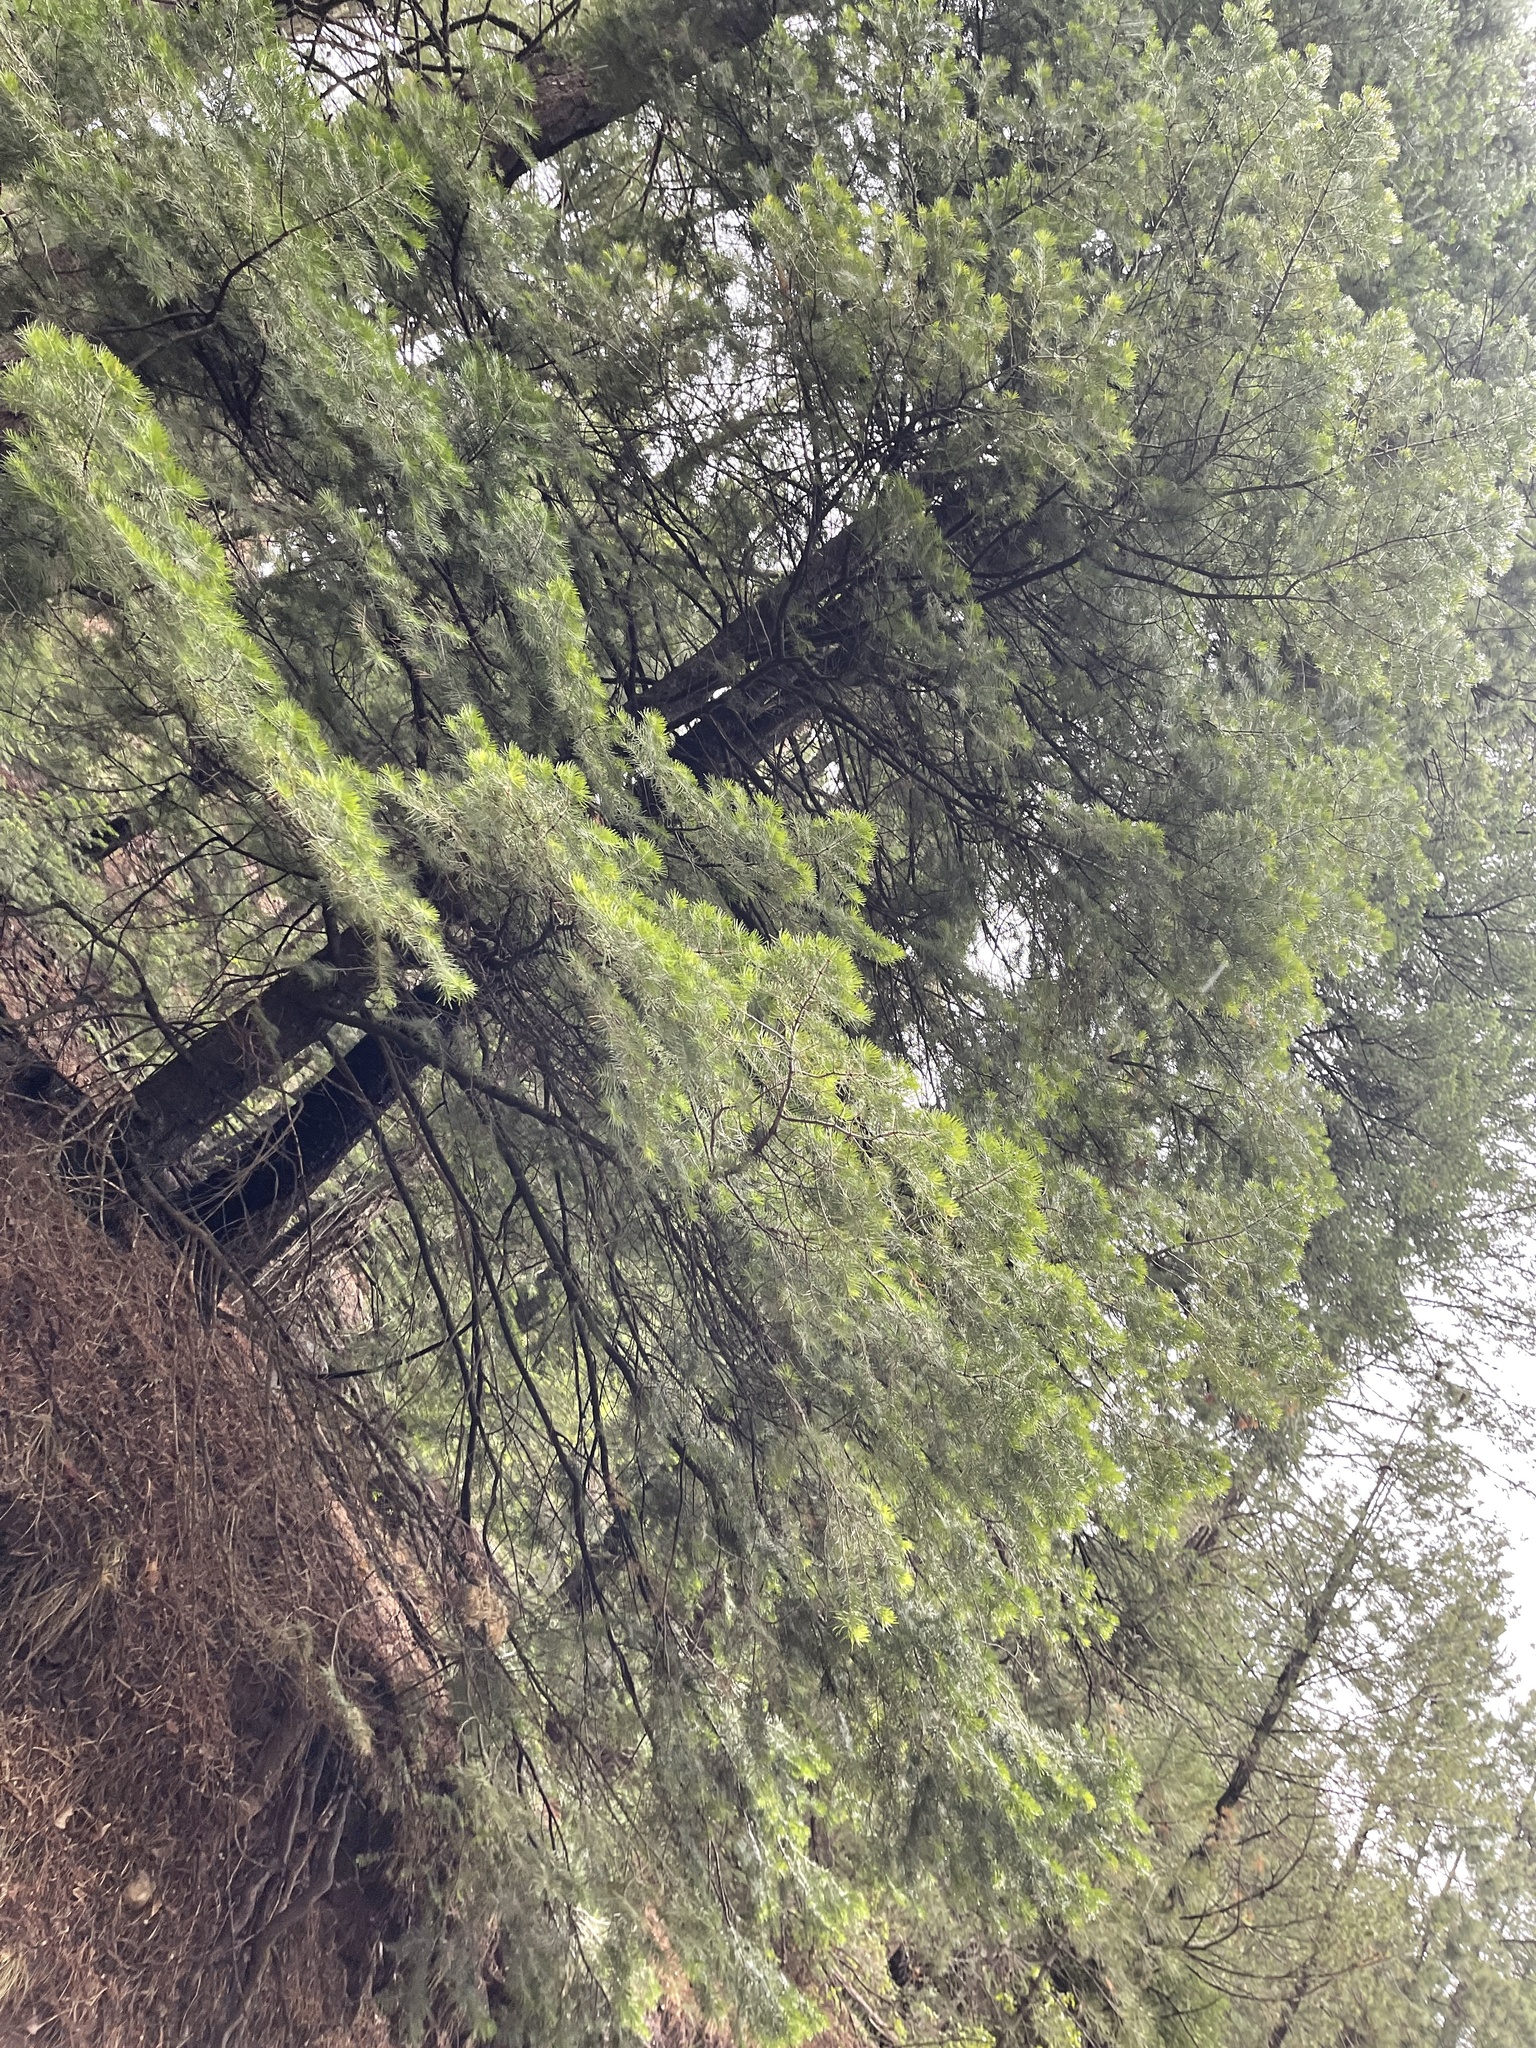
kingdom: Plantae
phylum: Tracheophyta
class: Pinopsida
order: Pinales
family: Pinaceae
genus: Abies
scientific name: Abies concolor
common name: Colorado fir
